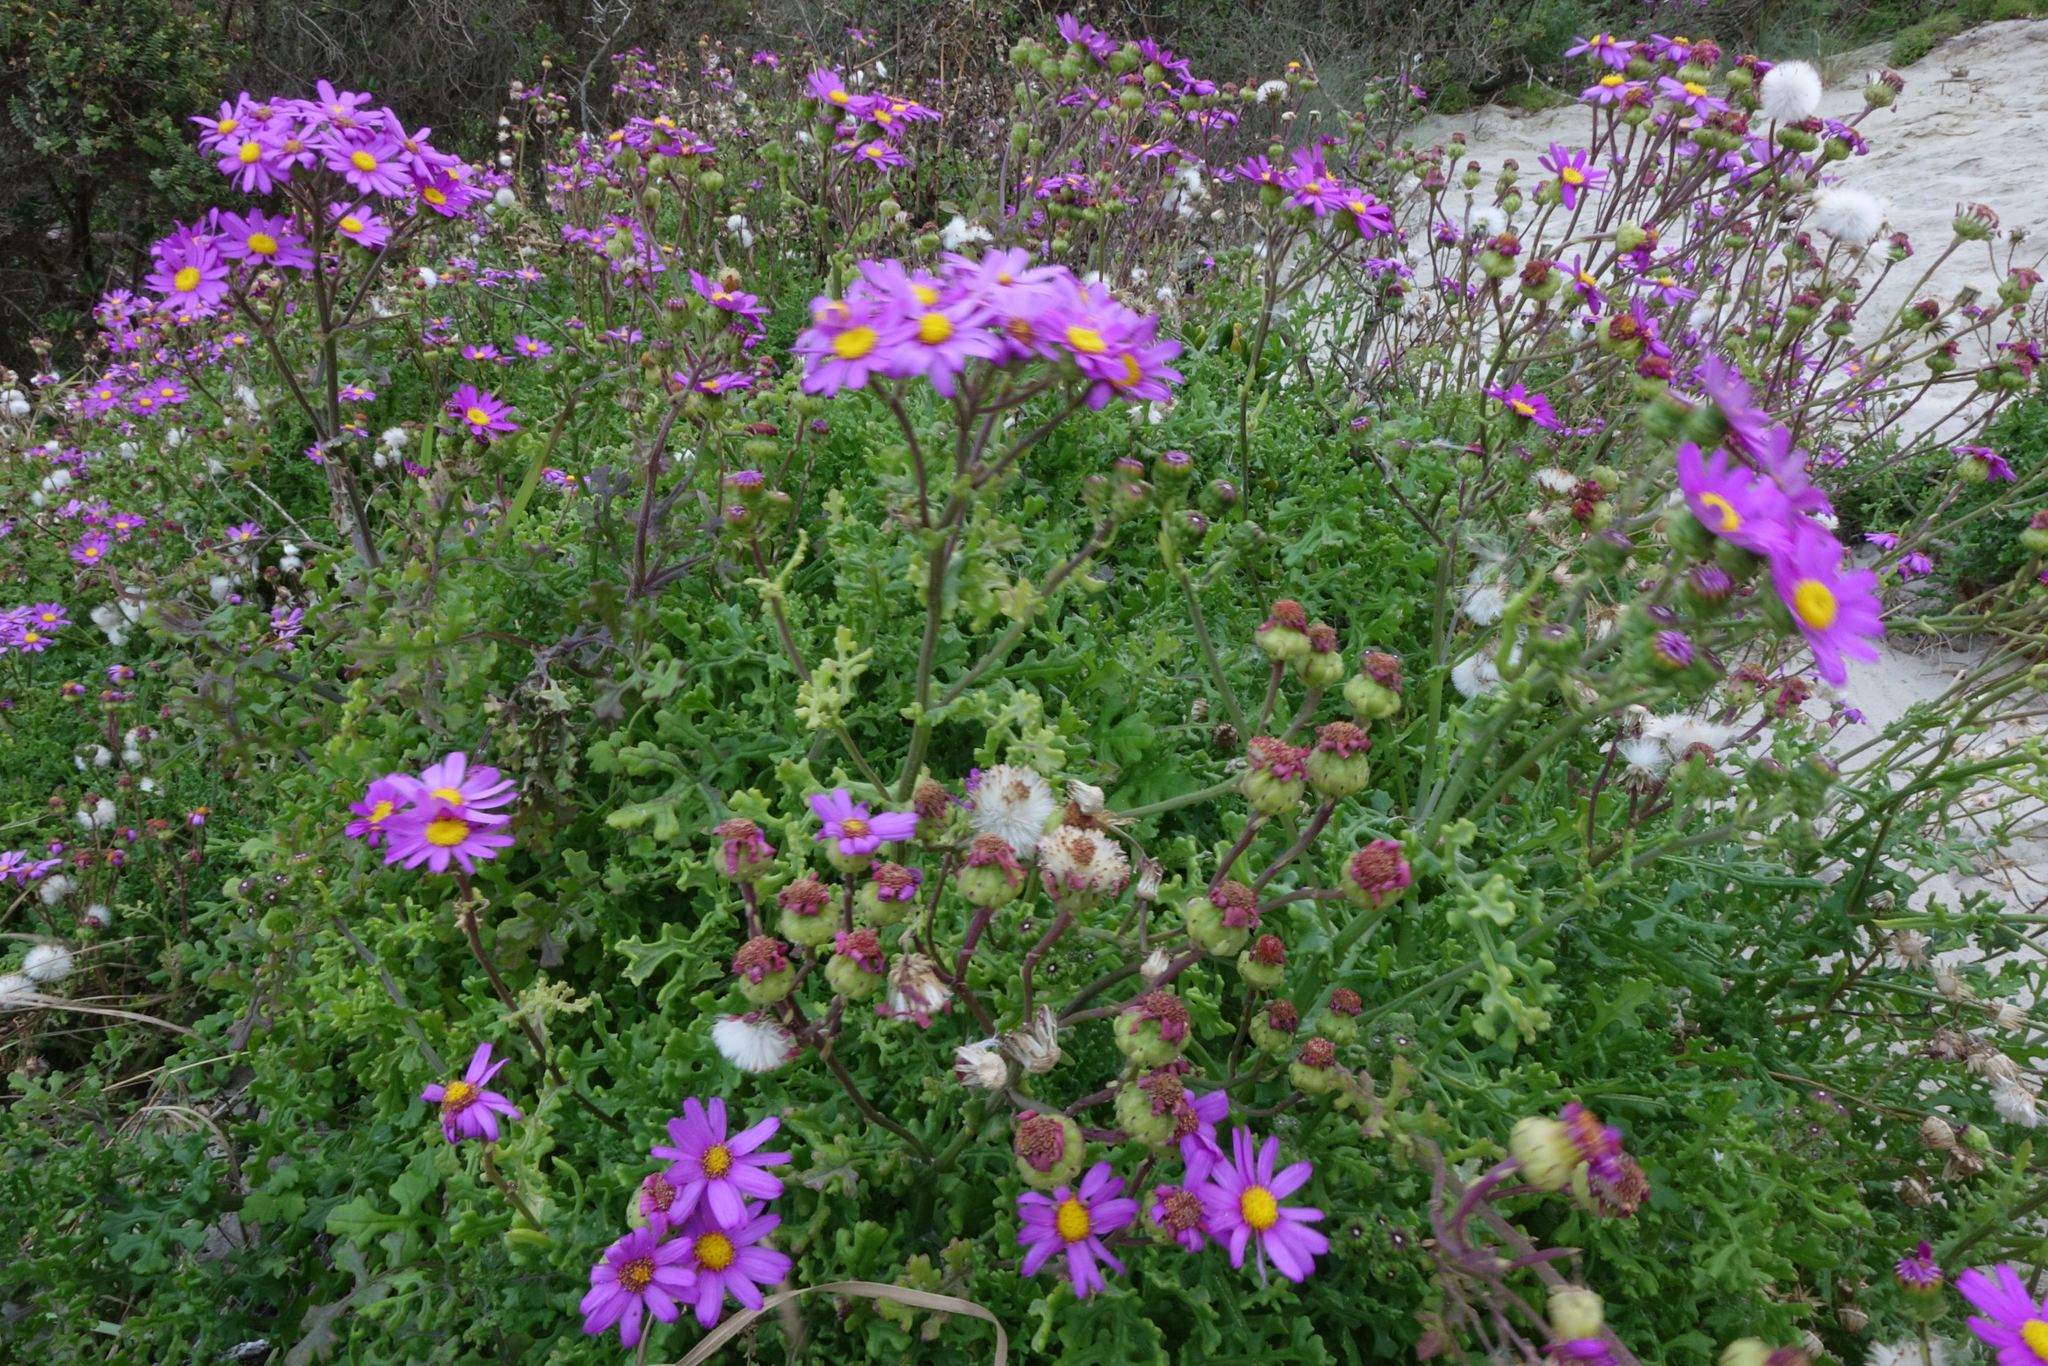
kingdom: Plantae
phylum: Tracheophyta
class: Magnoliopsida
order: Asterales
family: Asteraceae
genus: Senecio
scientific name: Senecio elegans
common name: Purple groundsel
